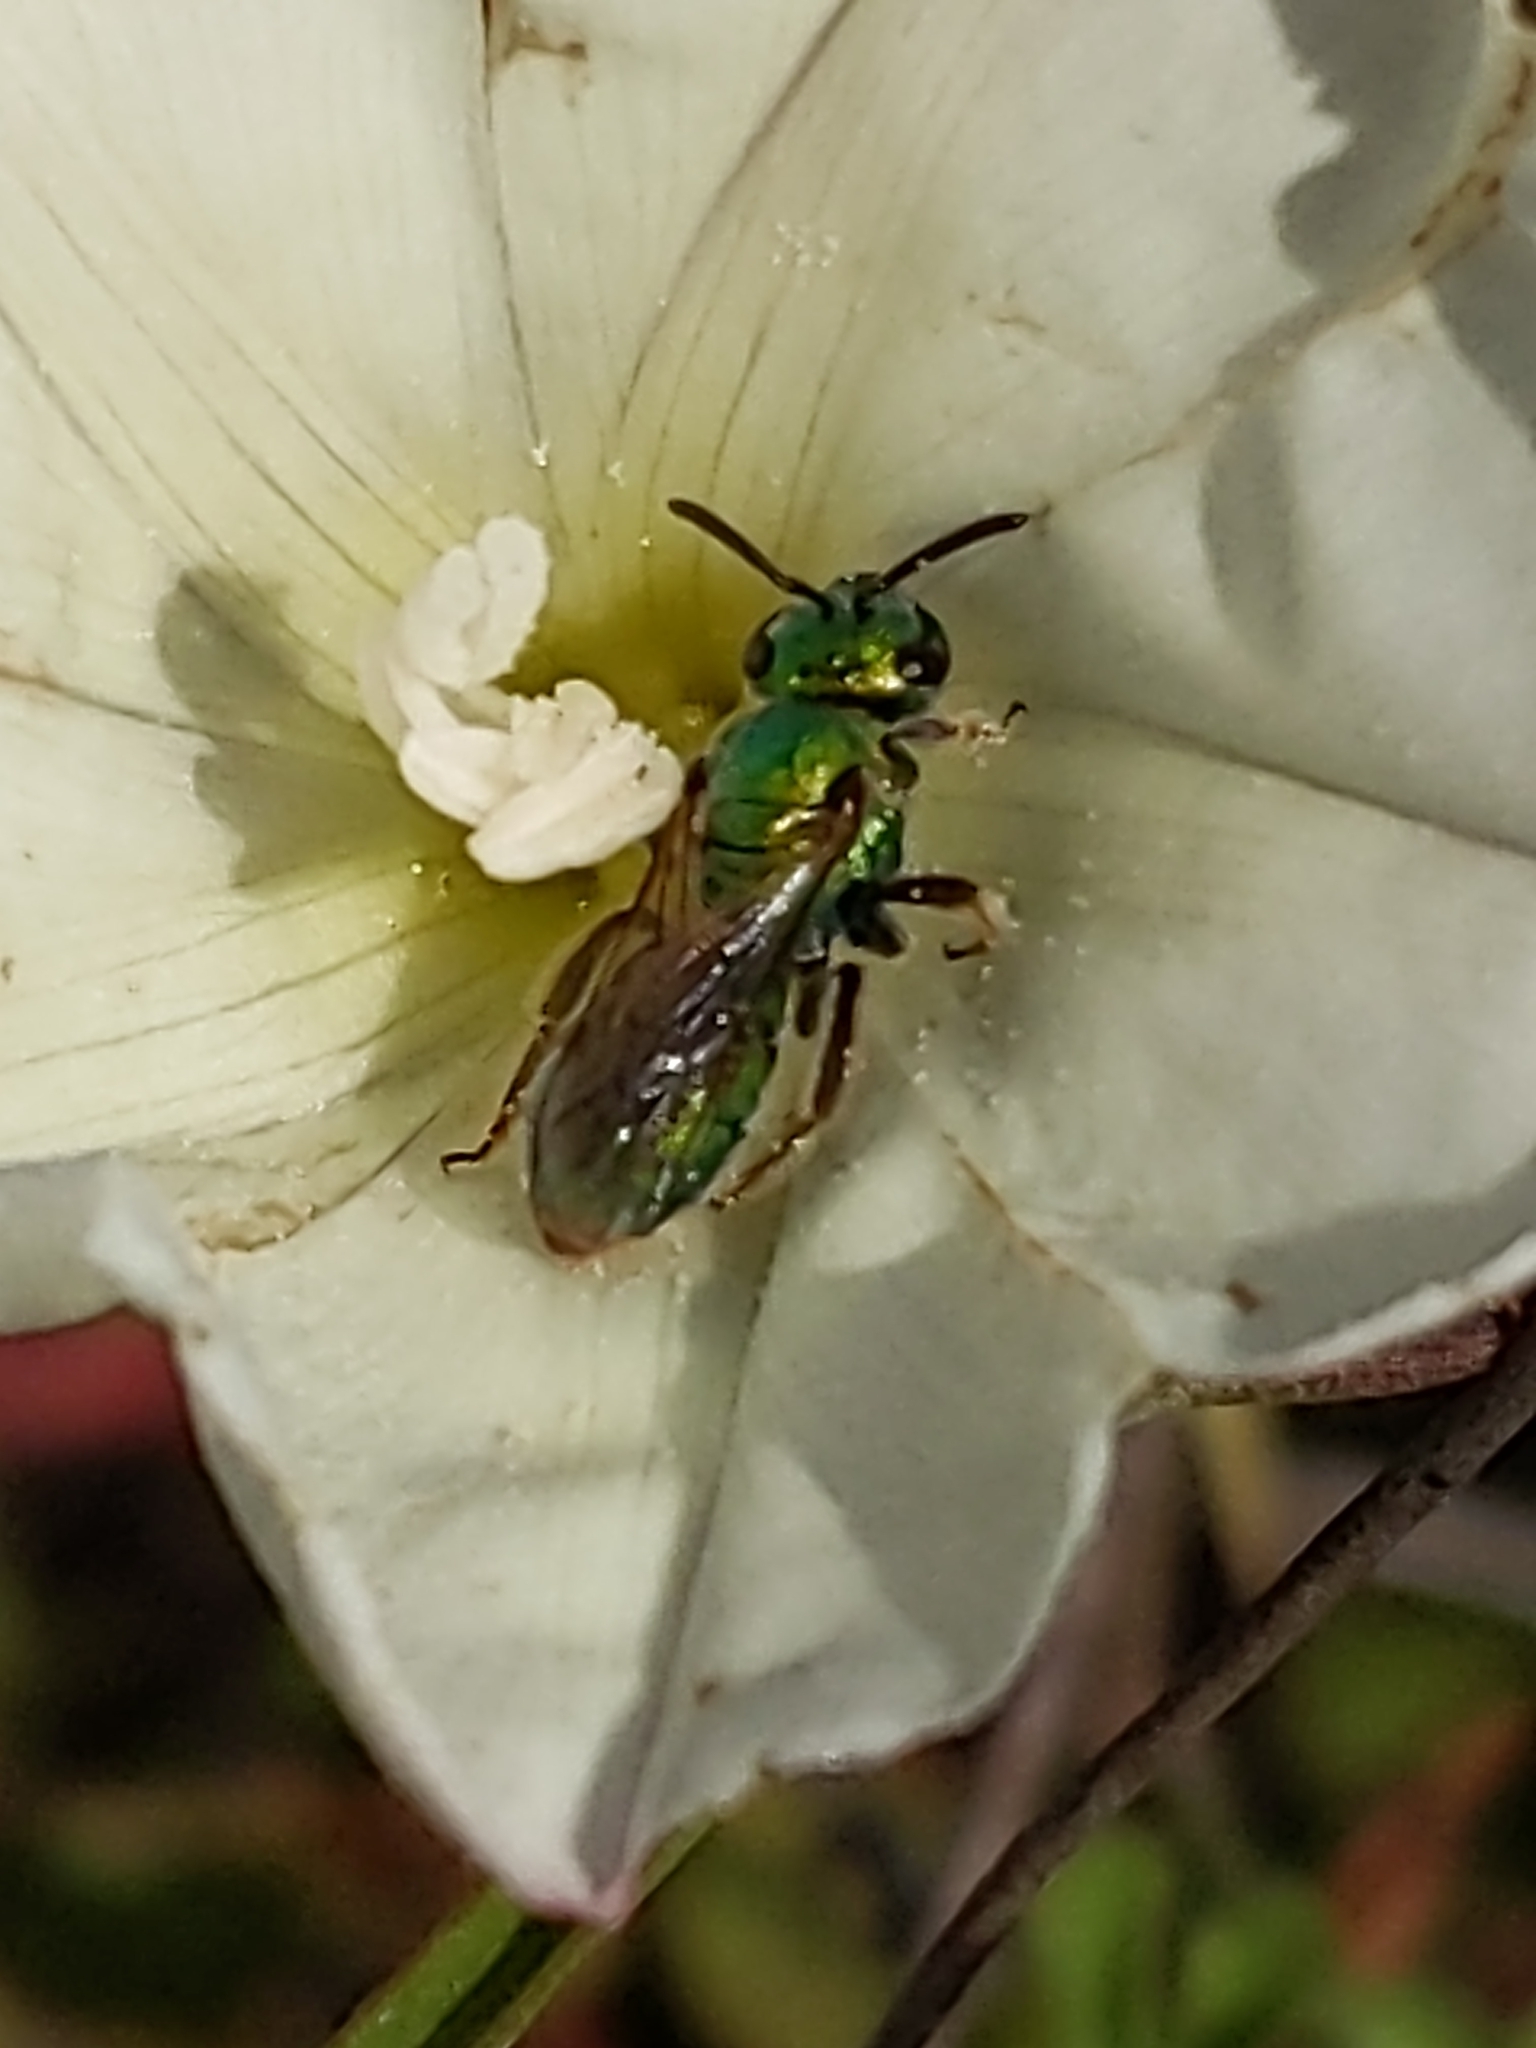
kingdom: Animalia
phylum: Arthropoda
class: Insecta
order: Hymenoptera
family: Halictidae
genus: Augochlorella
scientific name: Augochlorella pomoniella
